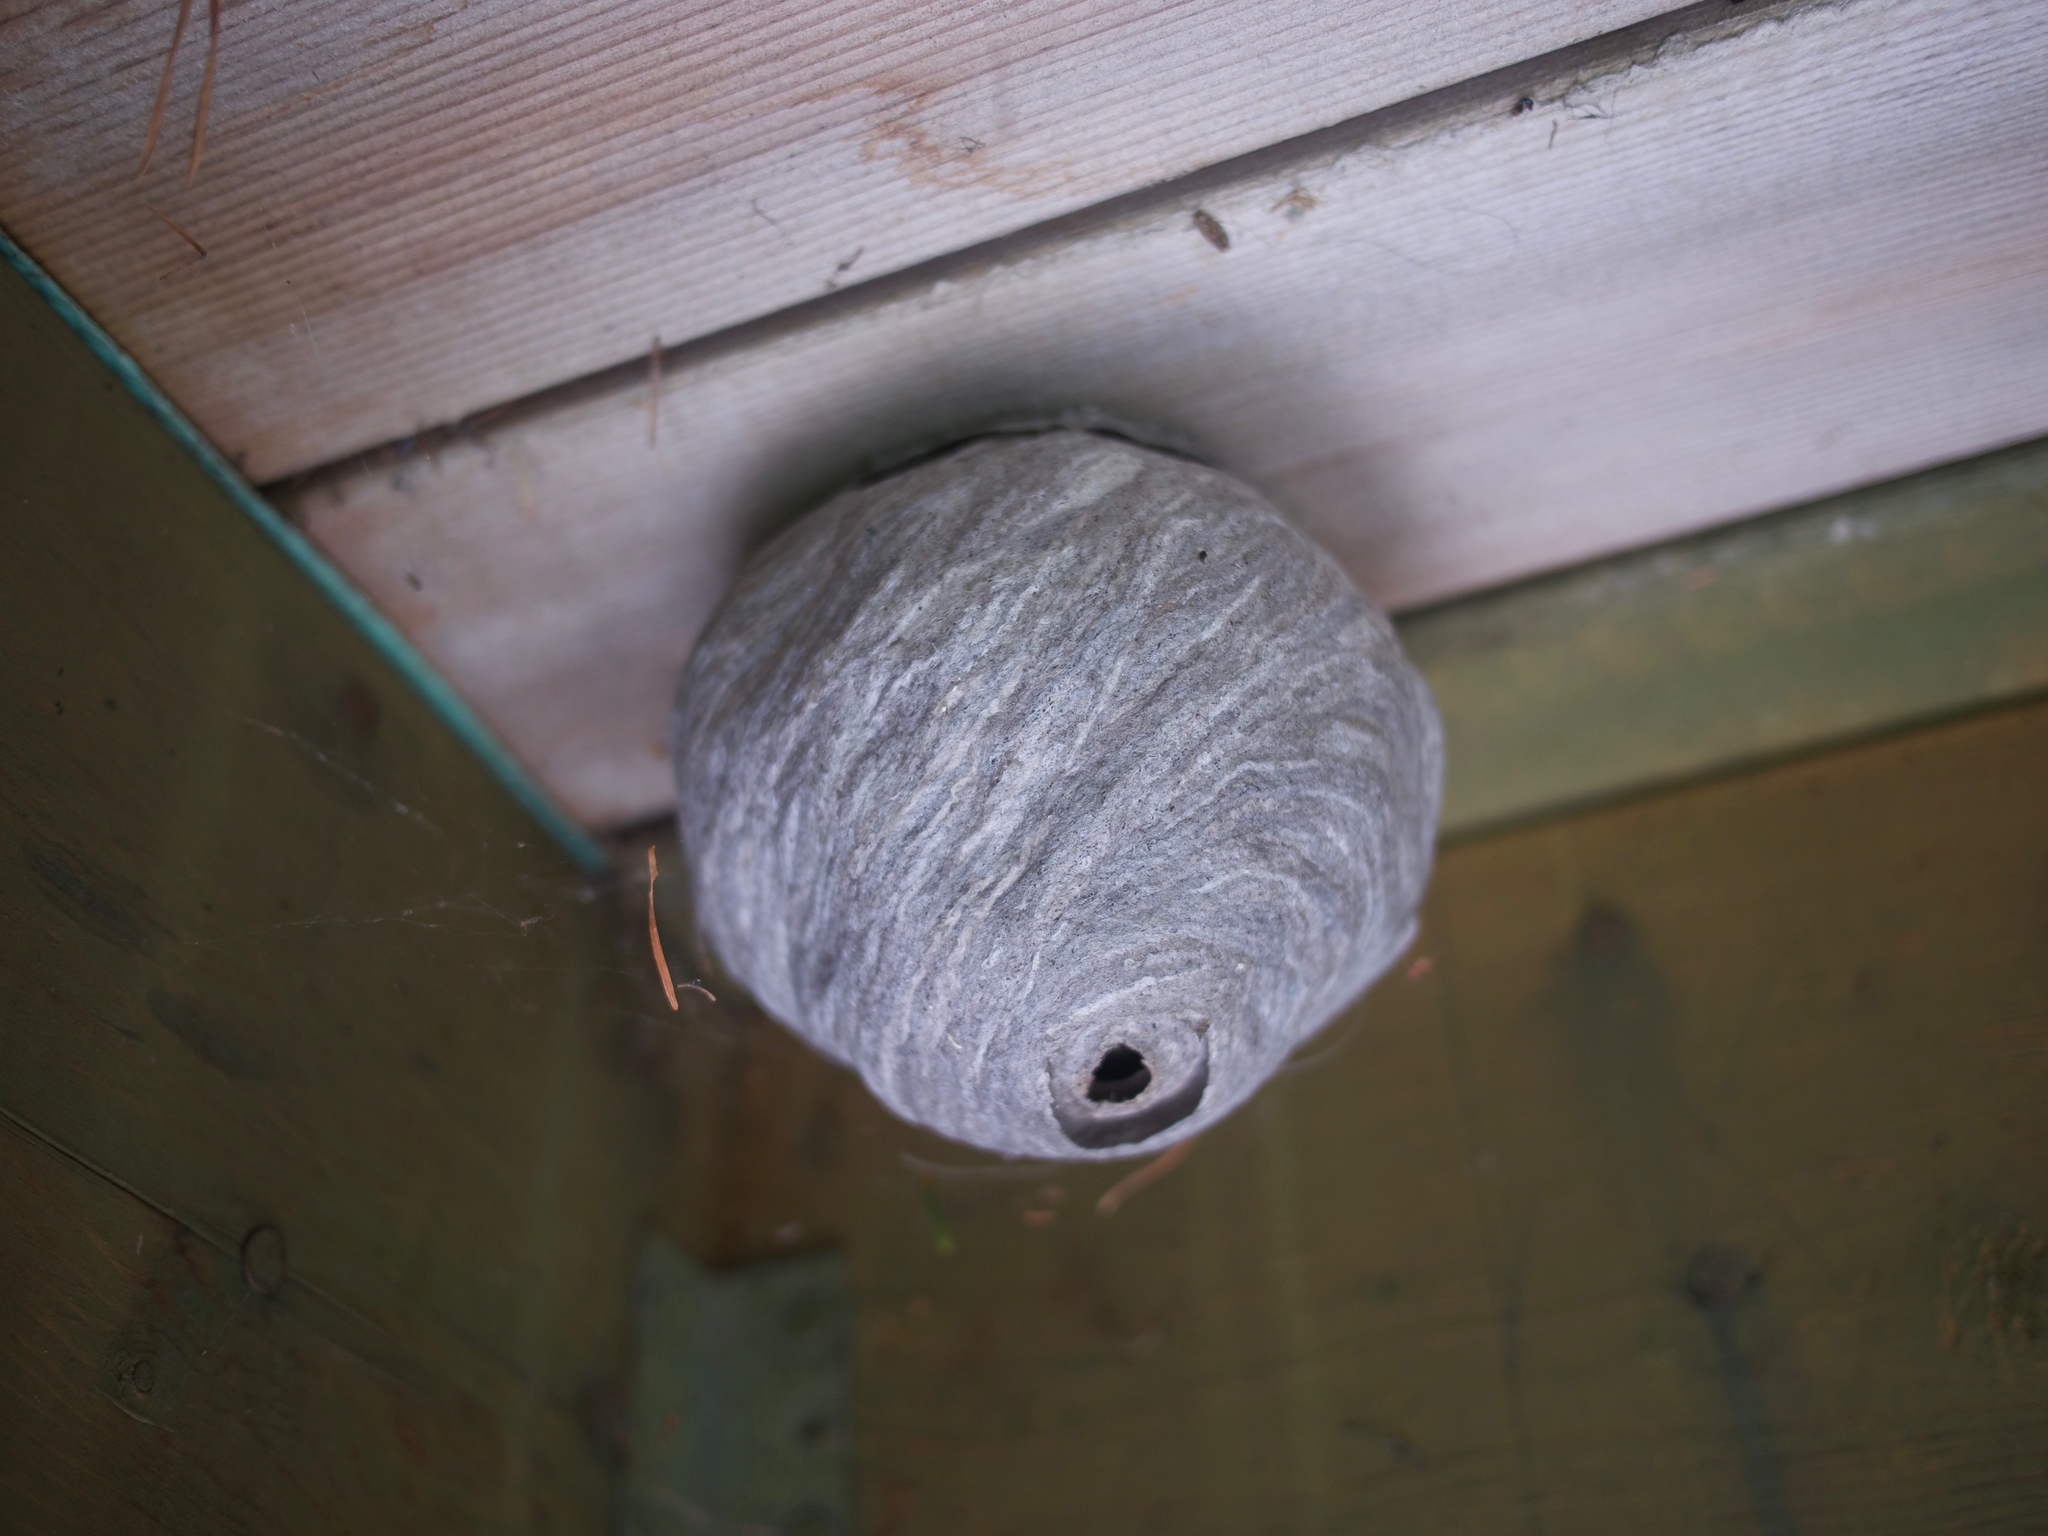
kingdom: Animalia
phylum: Arthropoda
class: Insecta
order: Hymenoptera
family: Vespidae
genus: Dolichovespula
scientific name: Dolichovespula
